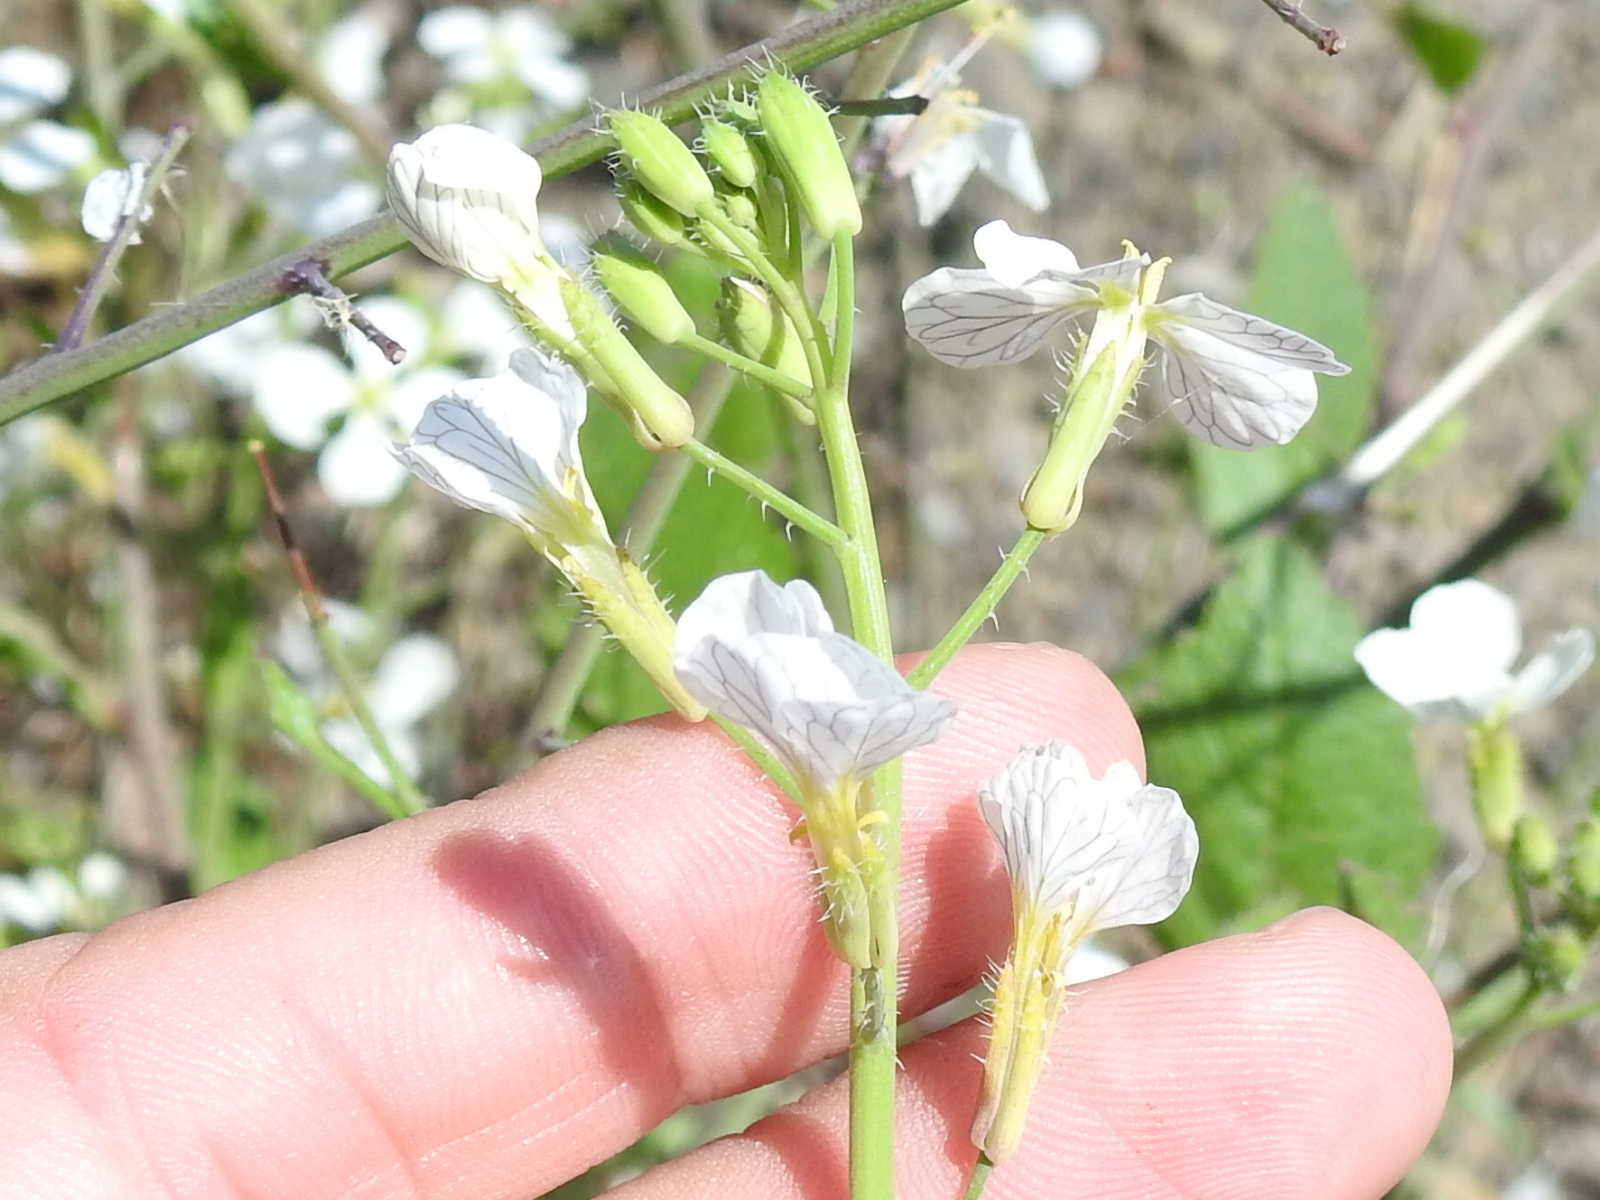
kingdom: Plantae
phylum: Tracheophyta
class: Magnoliopsida
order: Brassicales
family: Brassicaceae
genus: Raphanus
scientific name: Raphanus sativus
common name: Cultivated radish
